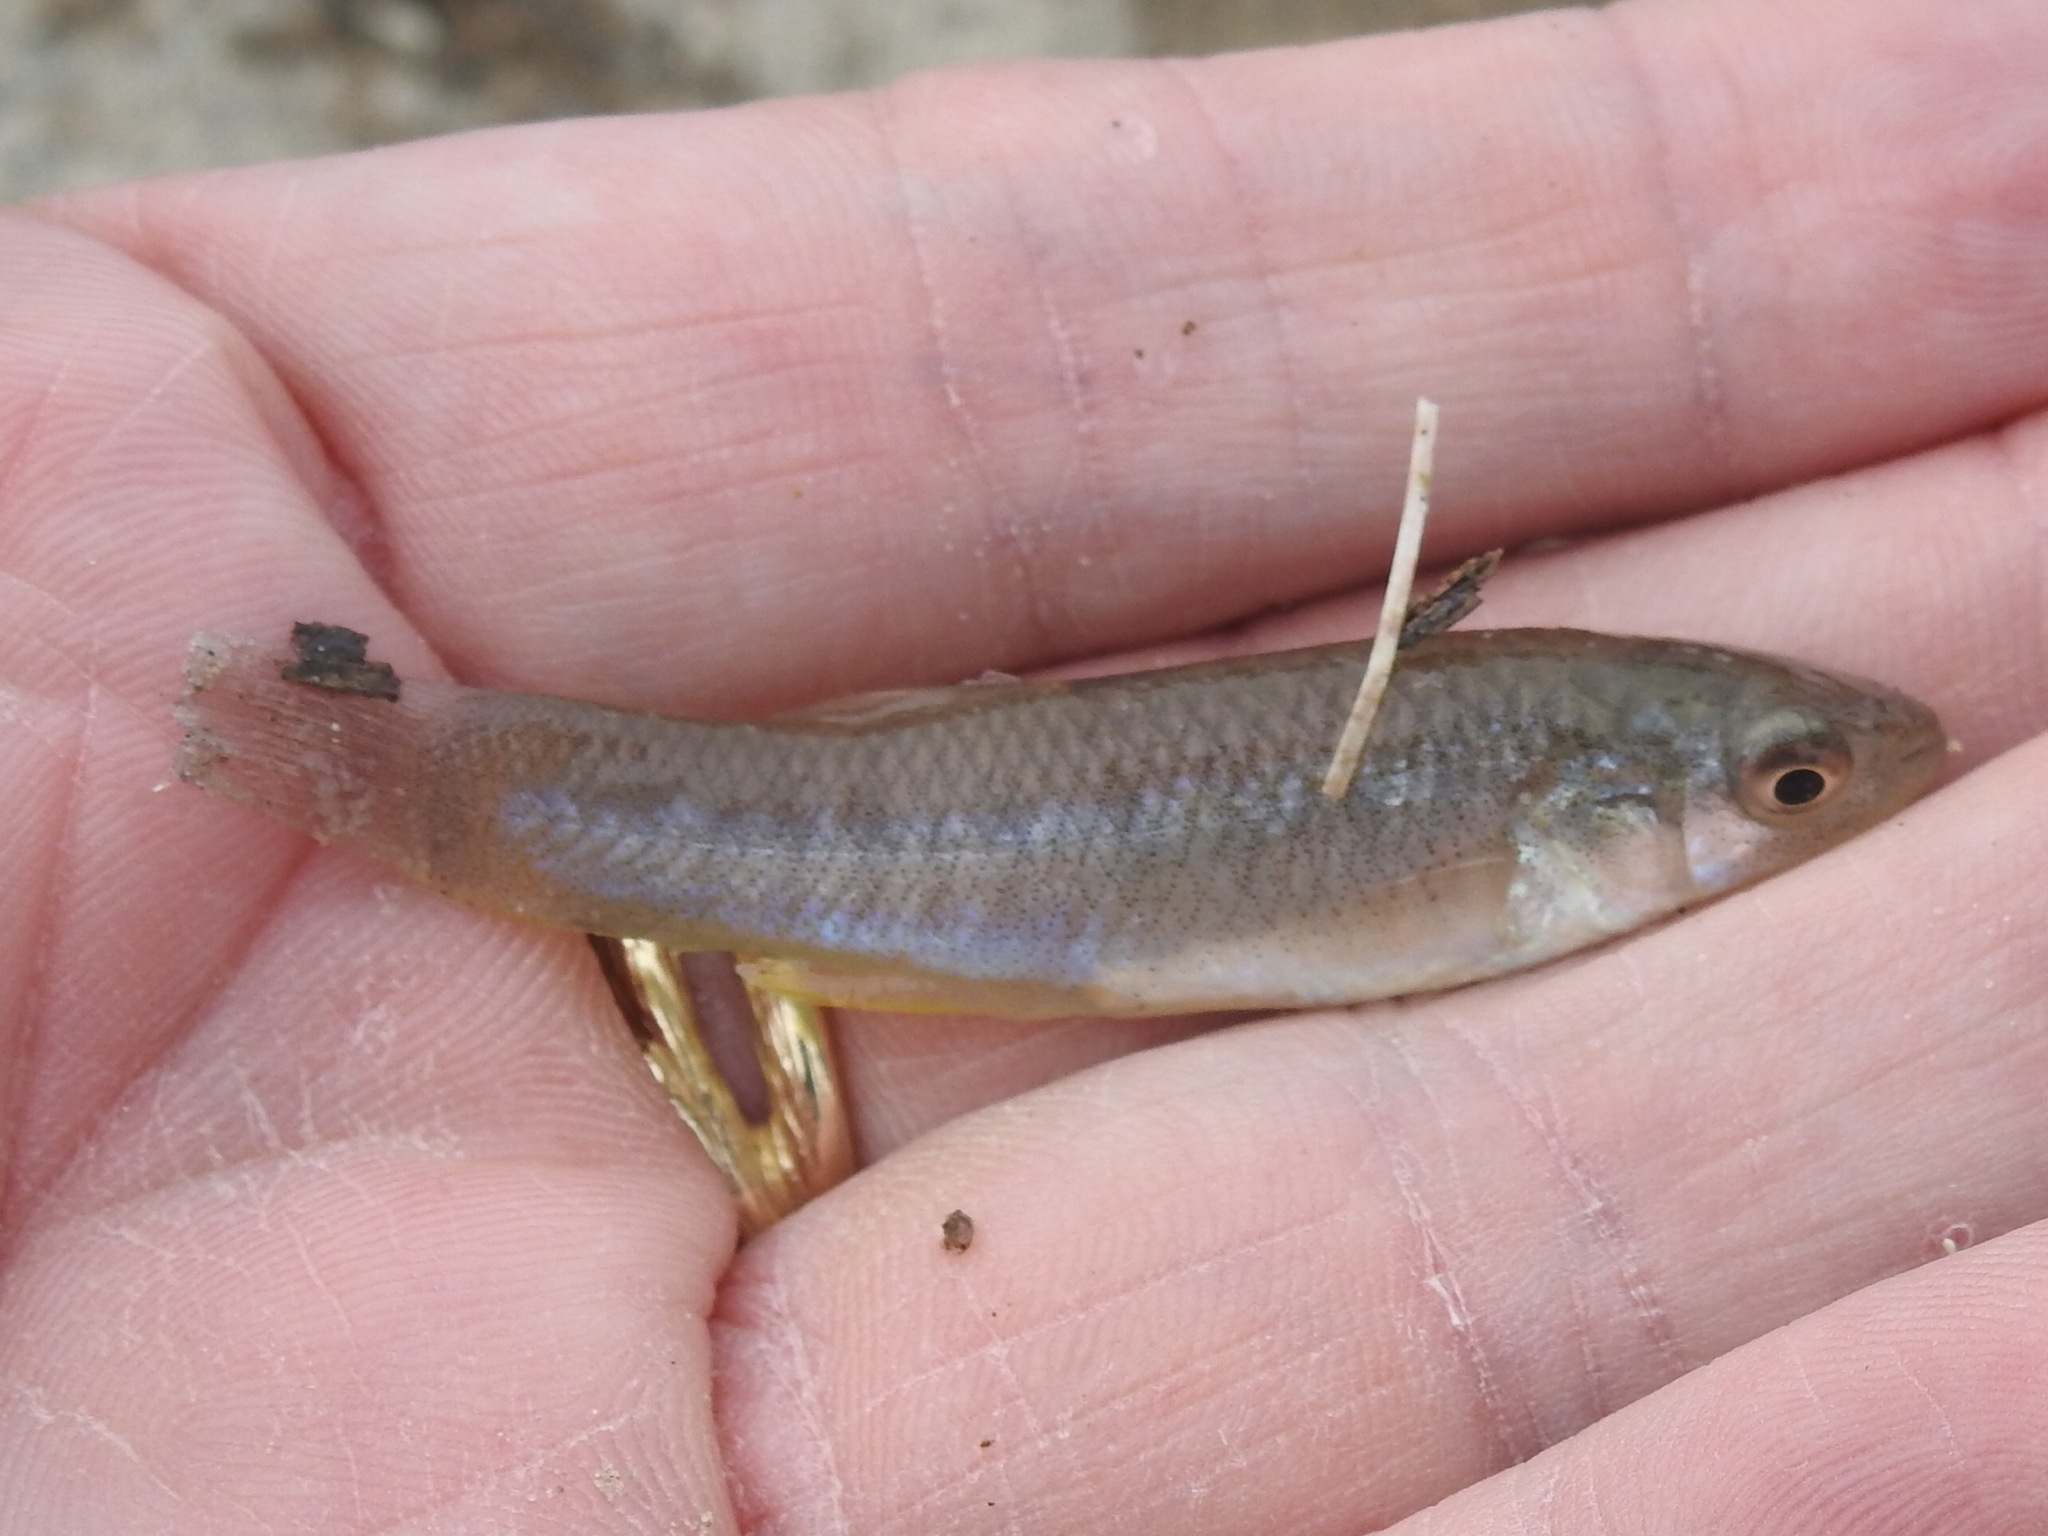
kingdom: Animalia
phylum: Chordata
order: Cyprinodontiformes
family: Fundulidae
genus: Fundulus
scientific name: Fundulus grandis
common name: Gulf killifish
